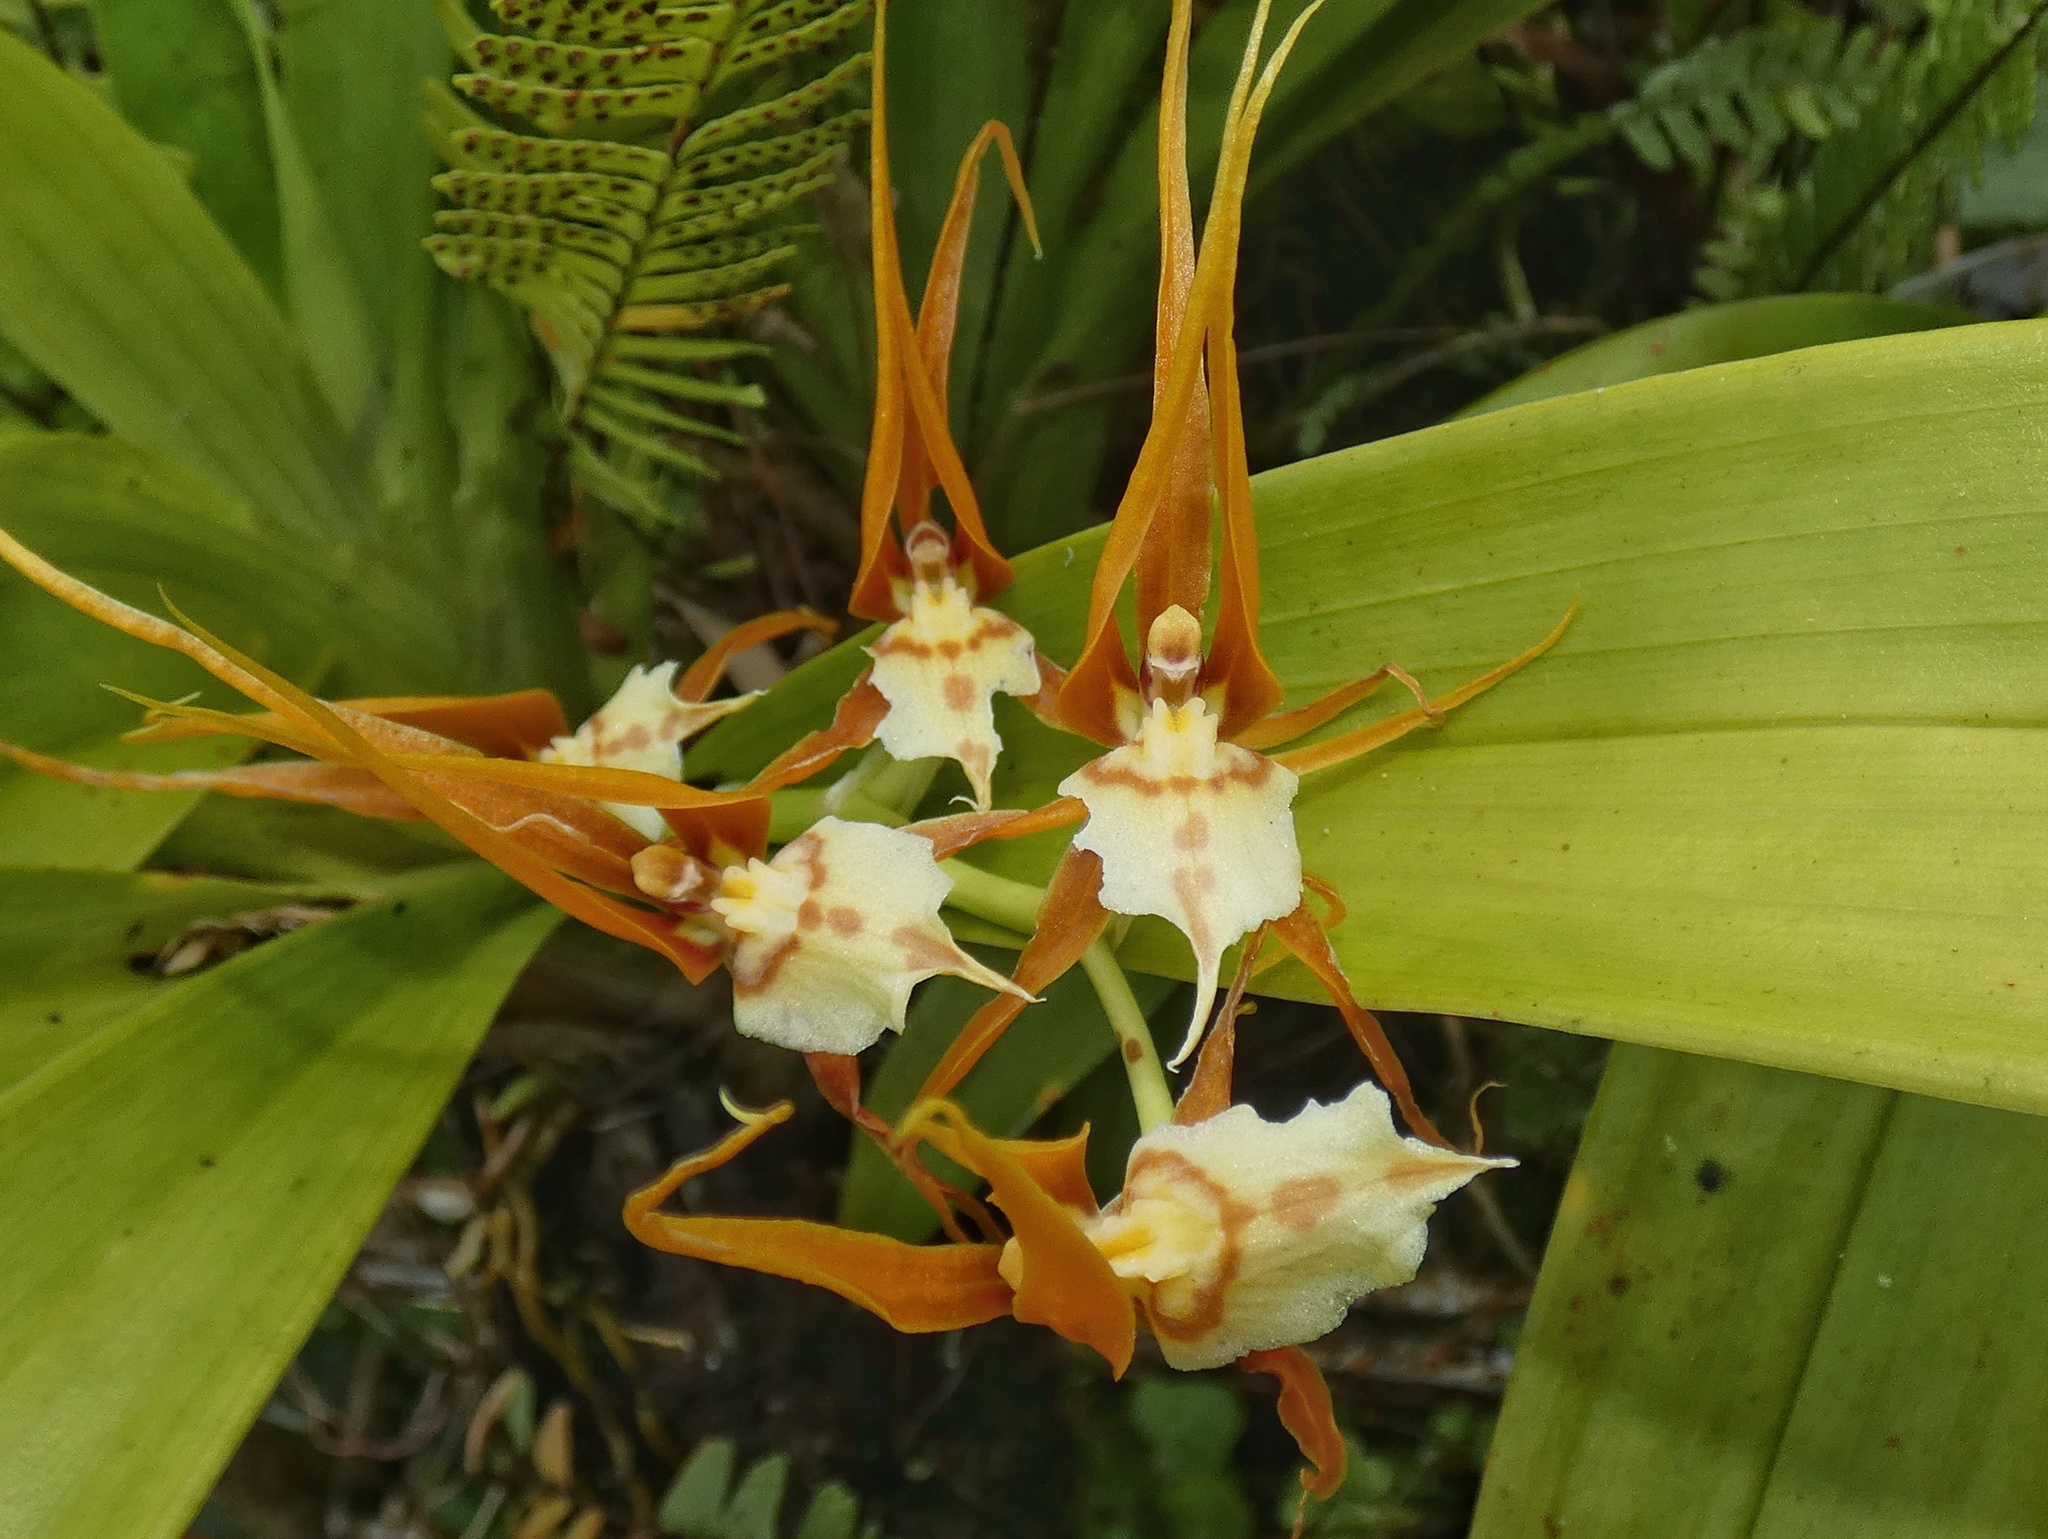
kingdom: Plantae
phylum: Tracheophyta
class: Liliopsida
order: Asparagales
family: Orchidaceae
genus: Brassia
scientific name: Brassia allenii
